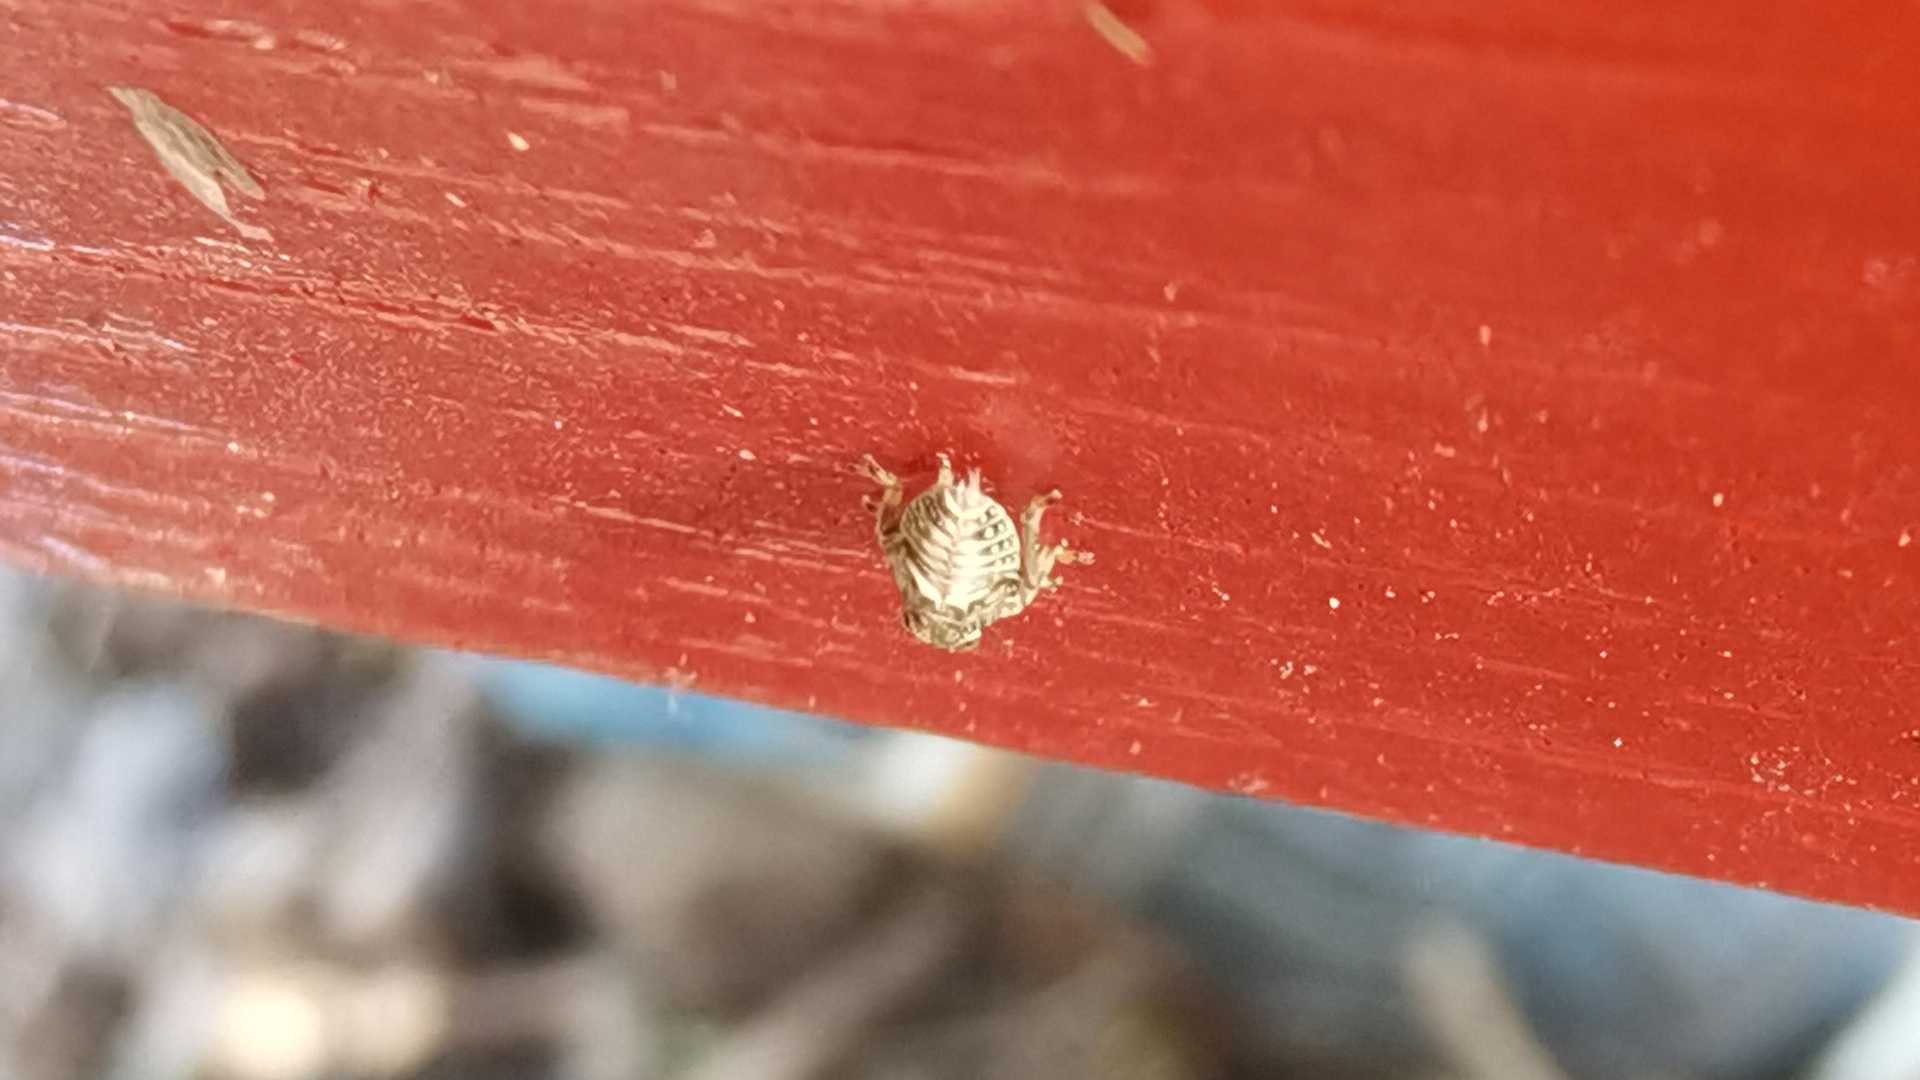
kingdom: Animalia
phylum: Arthropoda
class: Insecta
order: Hemiptera
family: Issidae
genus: Issus
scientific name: Issus
